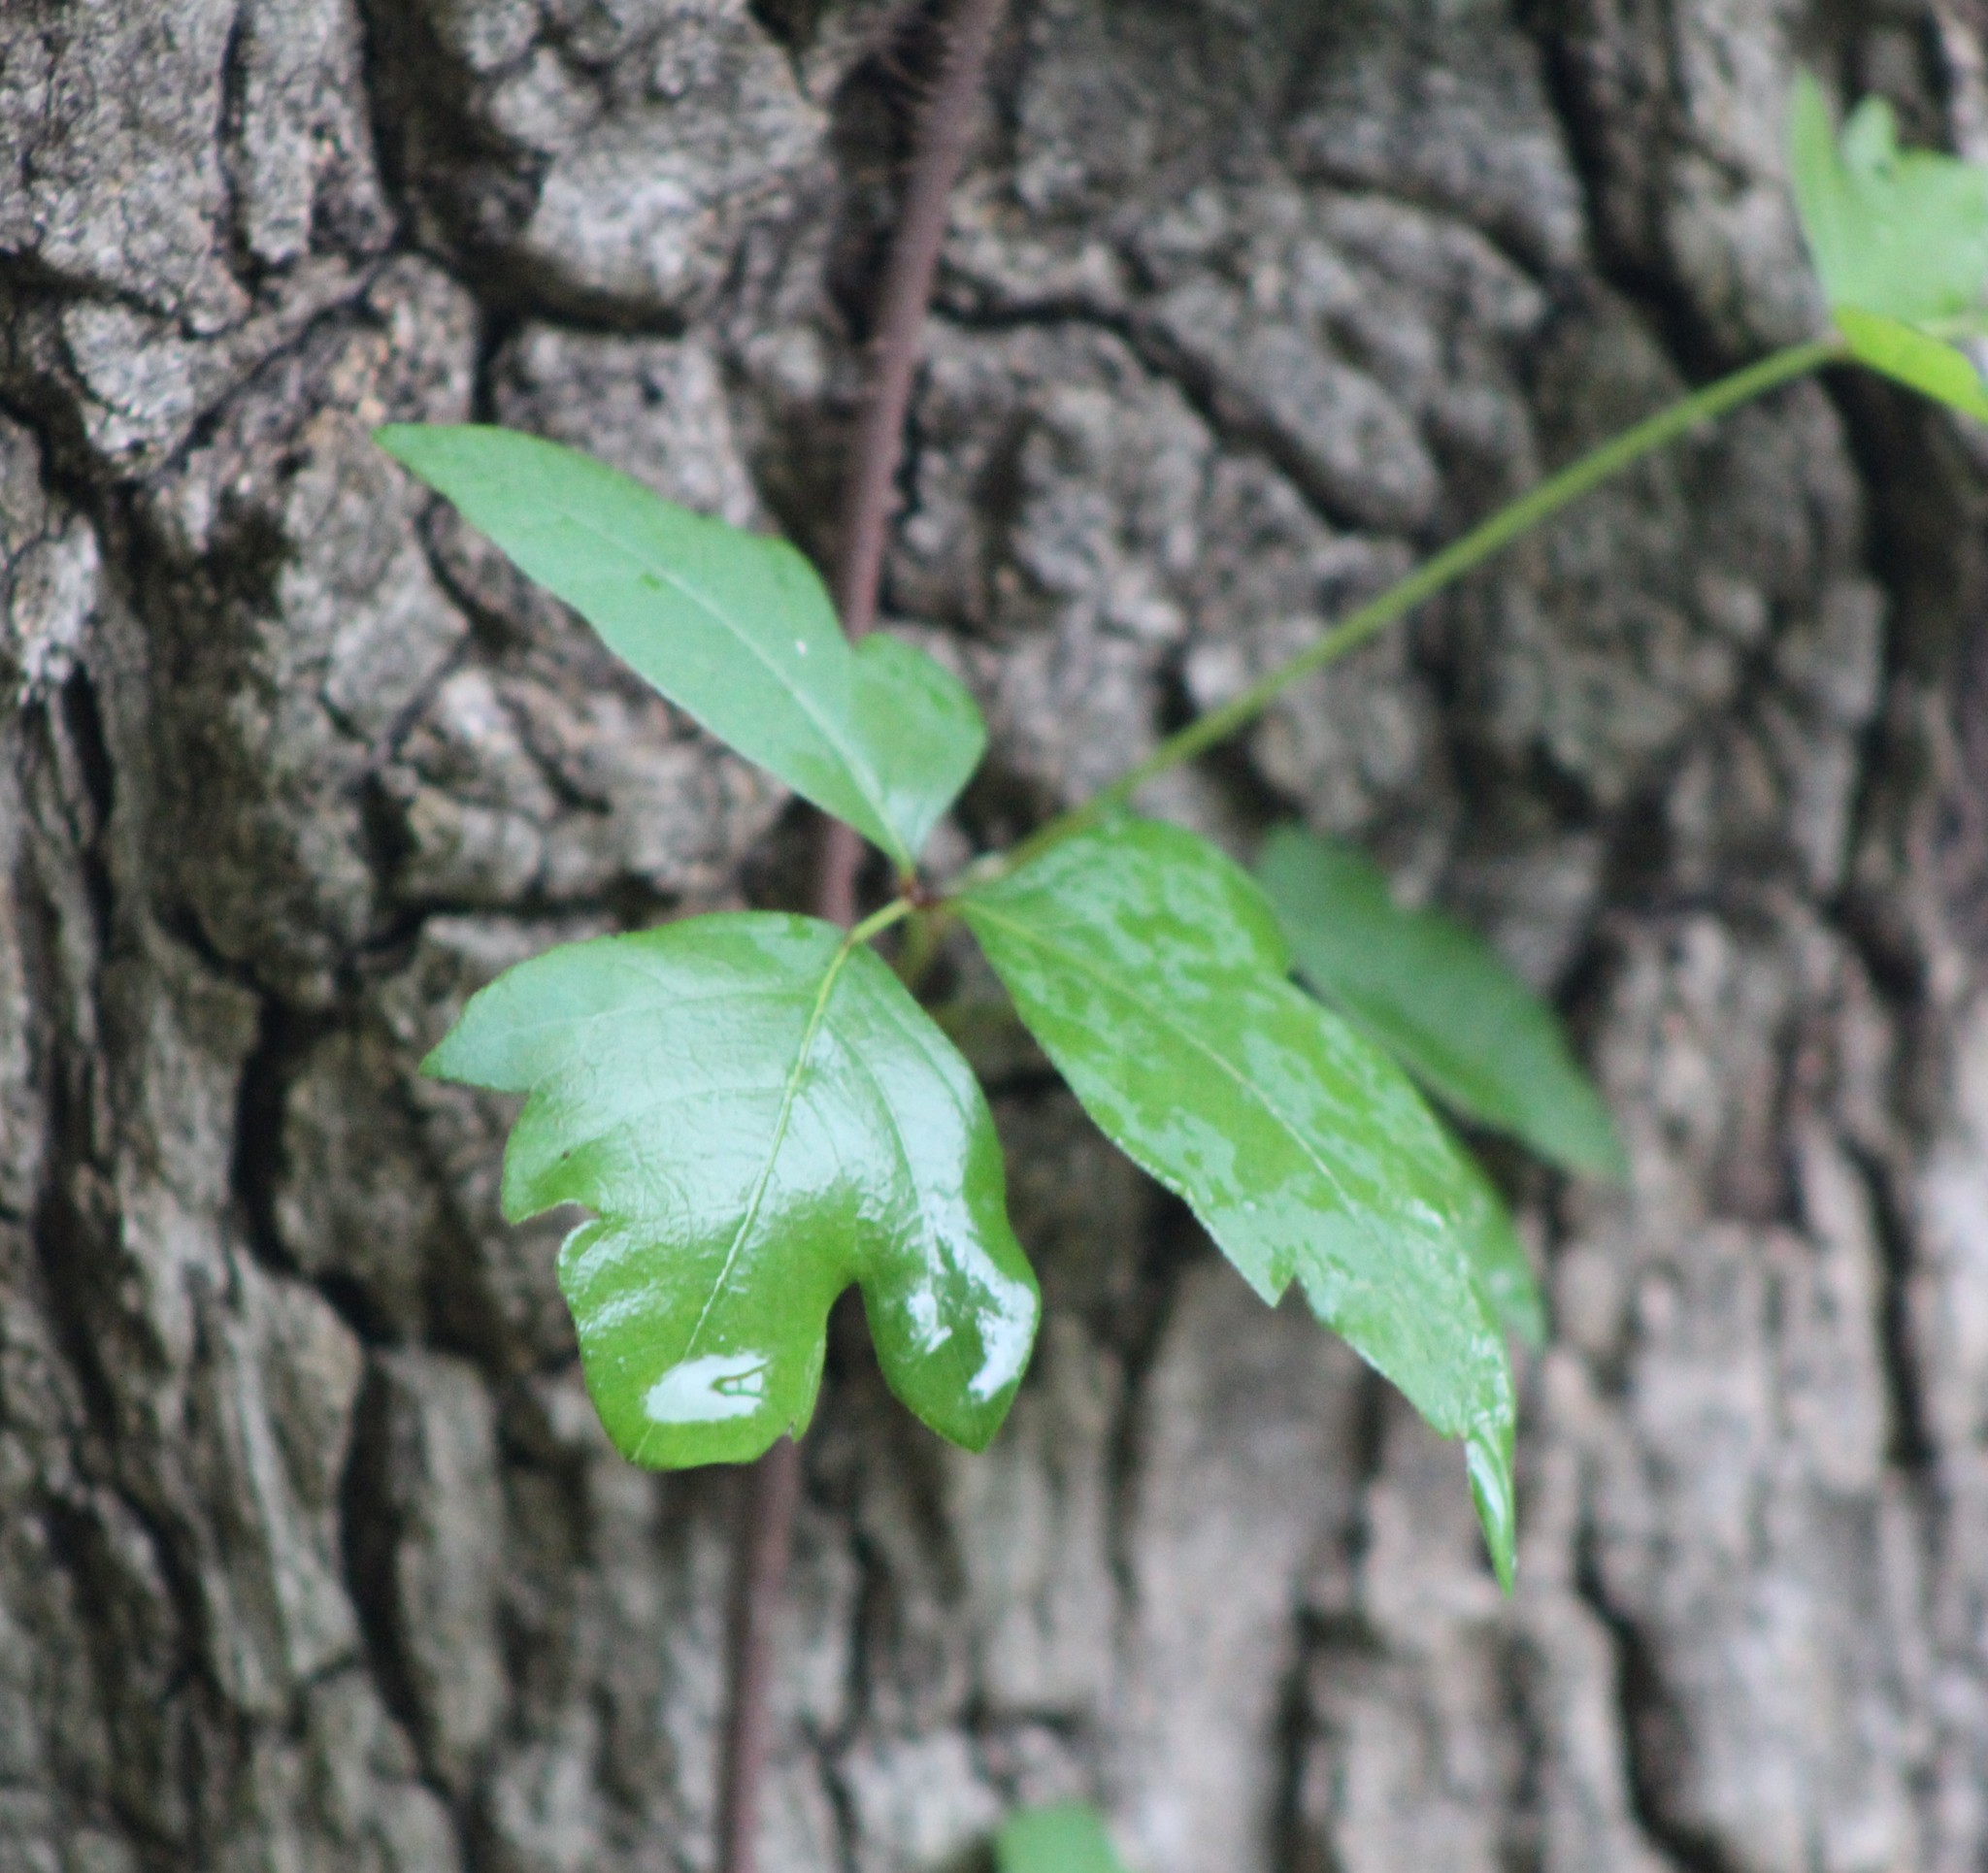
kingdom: Plantae
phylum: Tracheophyta
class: Magnoliopsida
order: Sapindales
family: Anacardiaceae
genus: Toxicodendron
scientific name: Toxicodendron radicans
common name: Poison ivy
